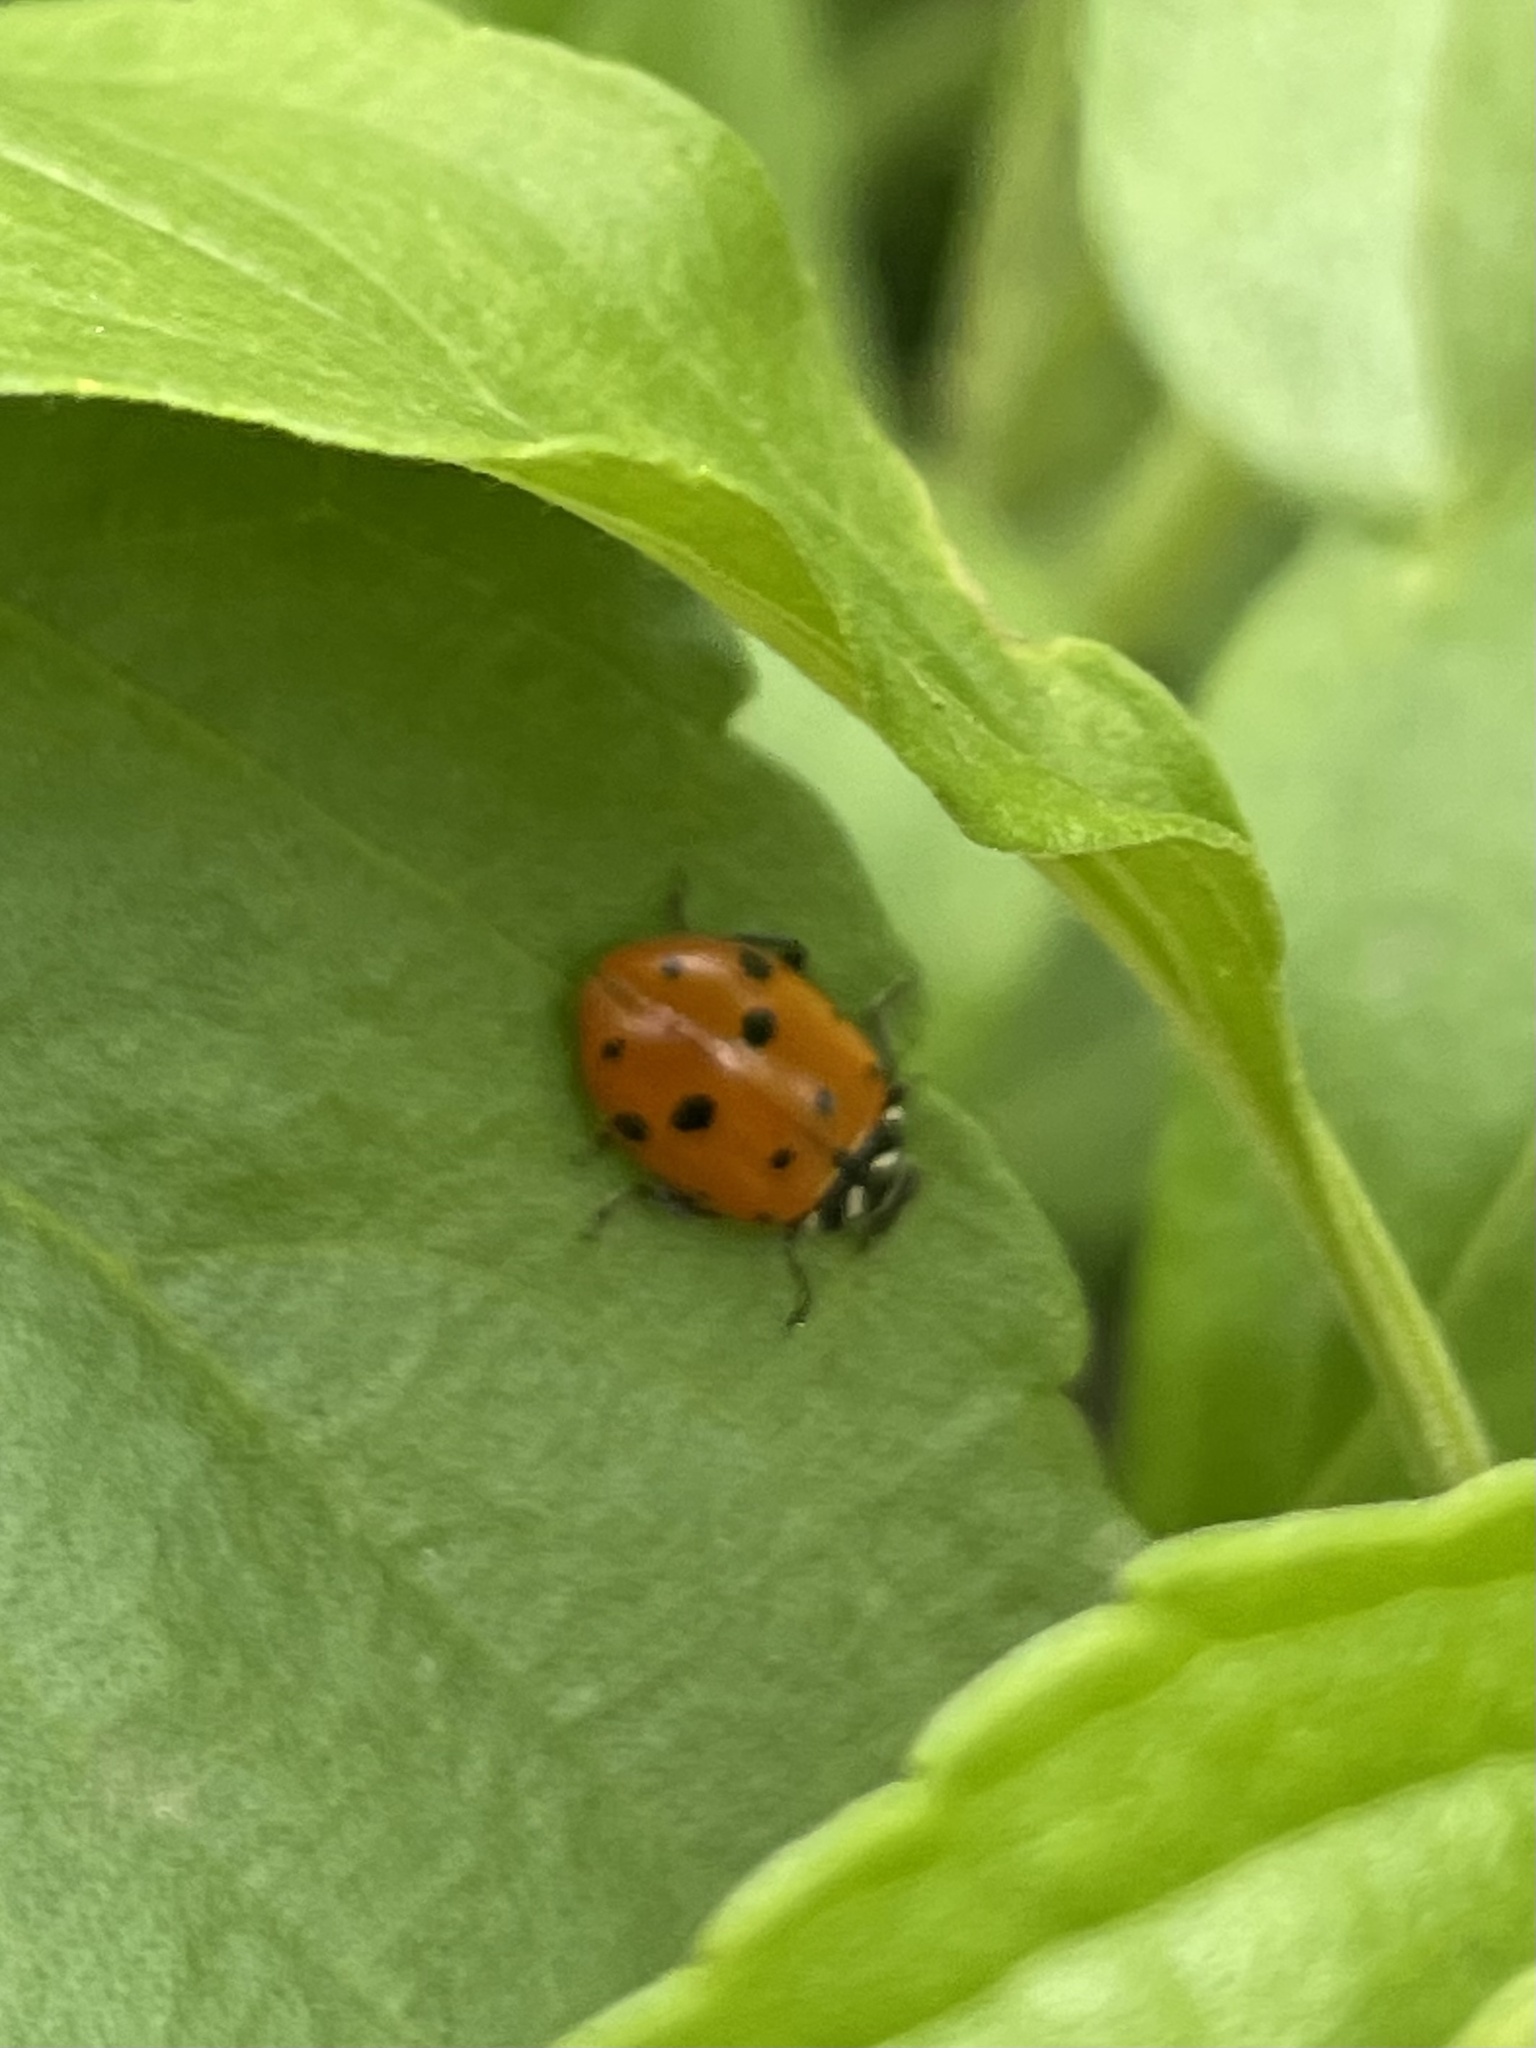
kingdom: Animalia
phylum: Arthropoda
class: Insecta
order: Coleoptera
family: Coccinellidae
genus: Hippodamia
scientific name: Hippodamia convergens
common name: Convergent lady beetle
